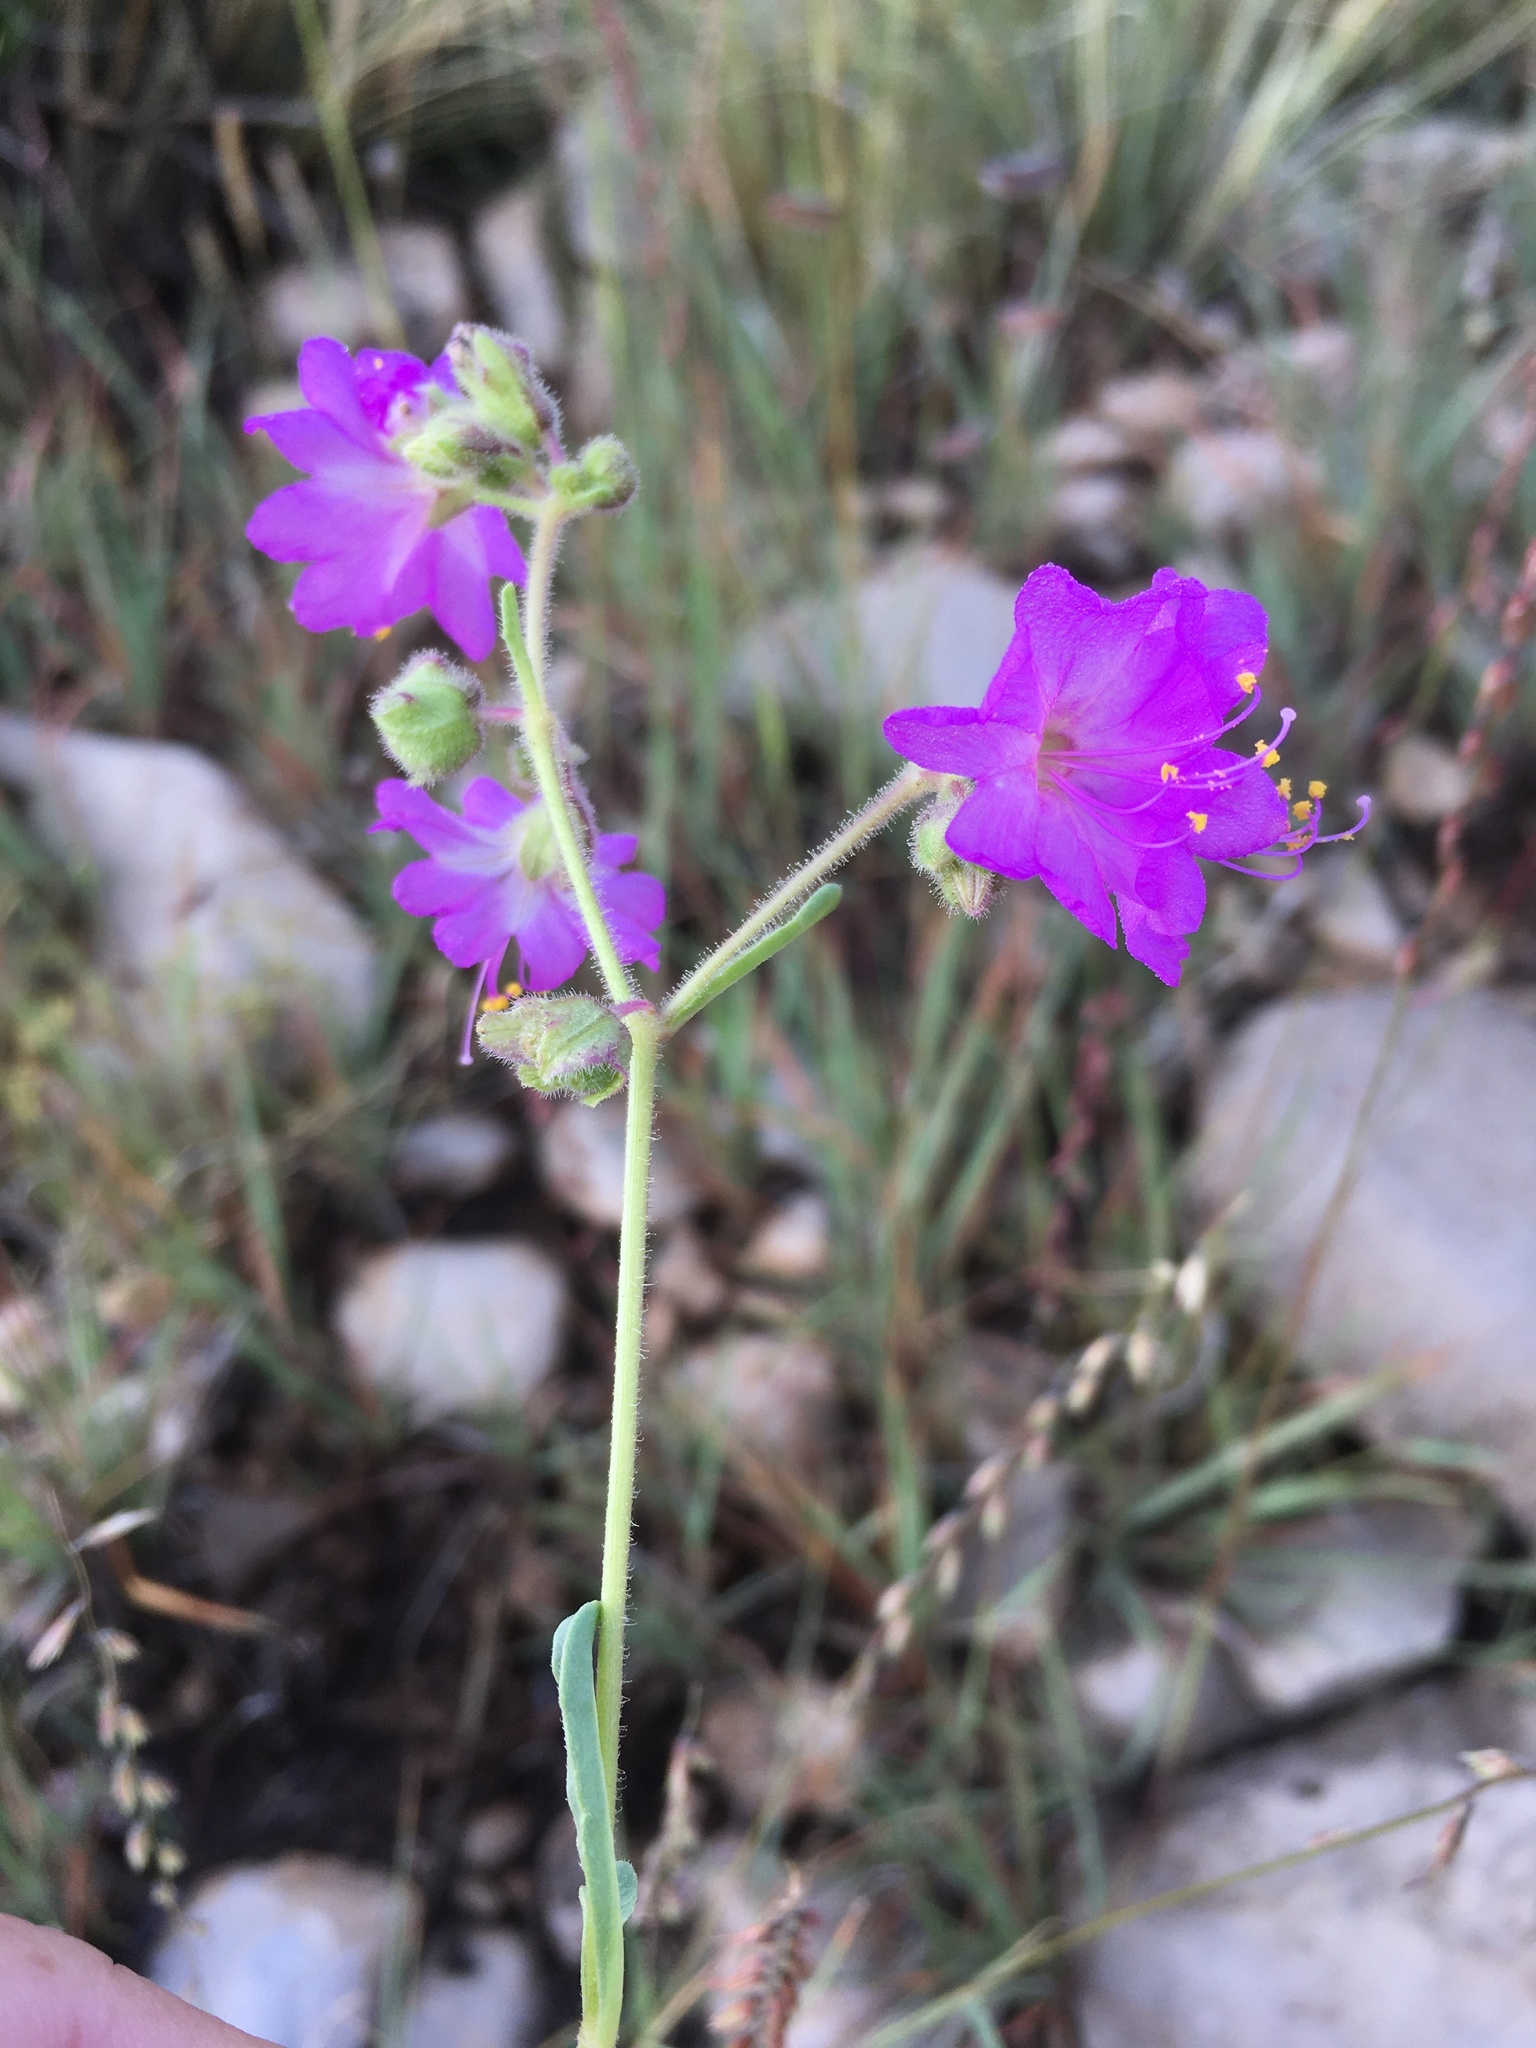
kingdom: Plantae
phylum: Tracheophyta
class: Magnoliopsida
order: Caryophyllales
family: Nyctaginaceae
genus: Mirabilis
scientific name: Mirabilis linearis
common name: Linear-leaved four-o'clock
